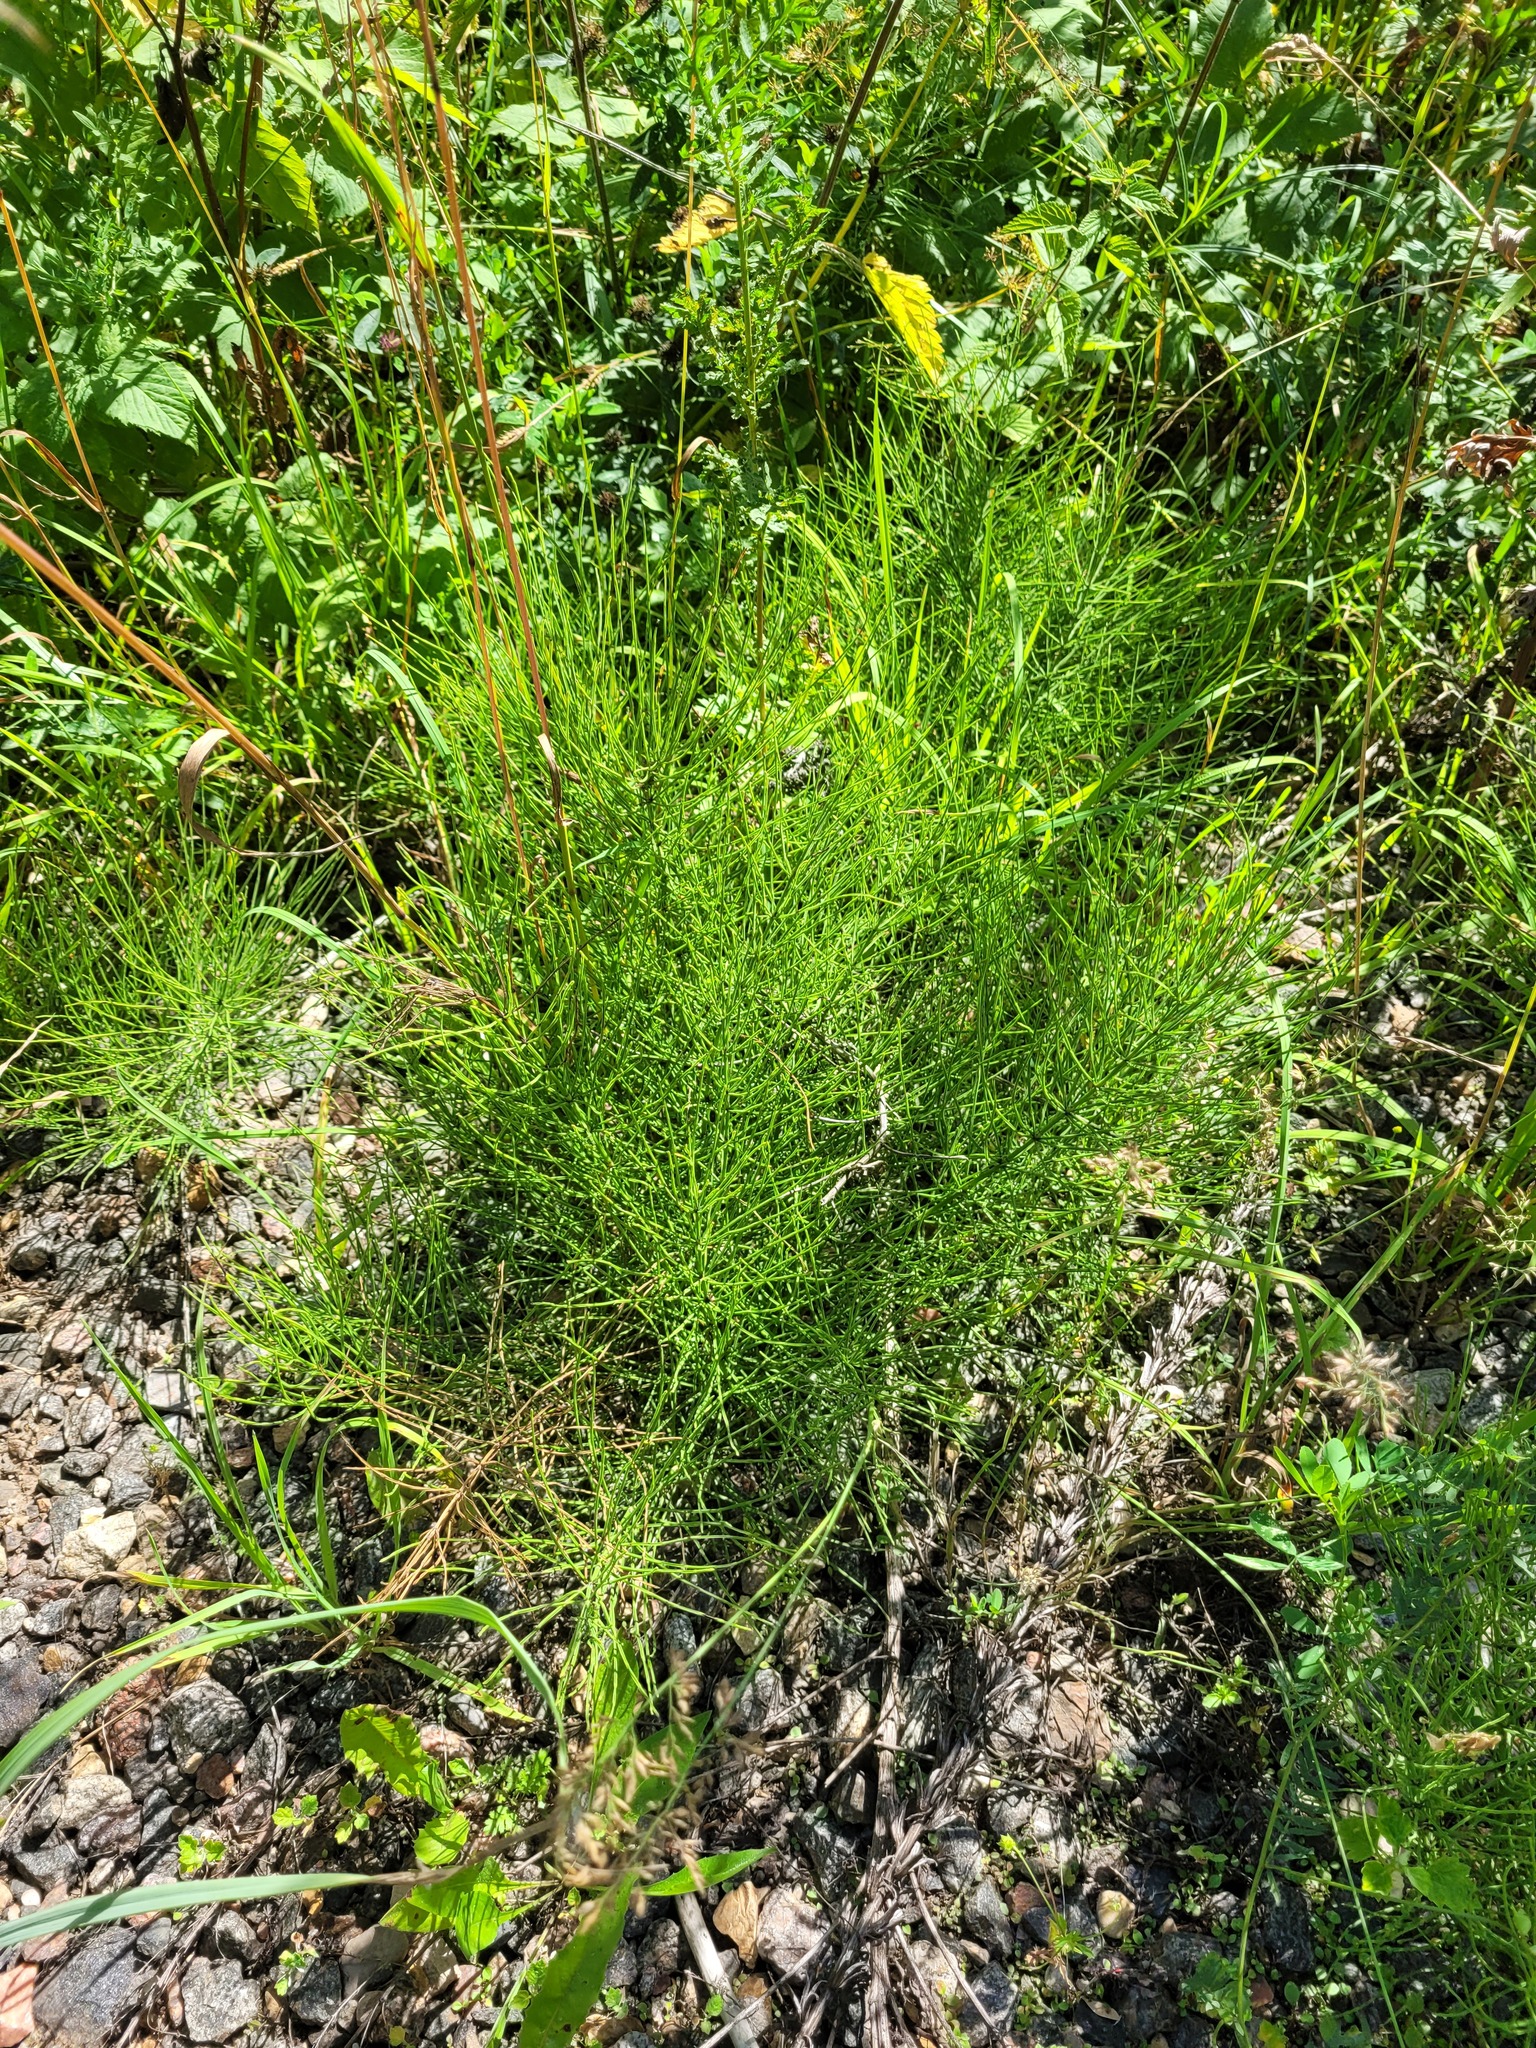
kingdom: Plantae
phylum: Tracheophyta
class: Polypodiopsida
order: Equisetales
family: Equisetaceae
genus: Equisetum
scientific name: Equisetum arvense
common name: Field horsetail
